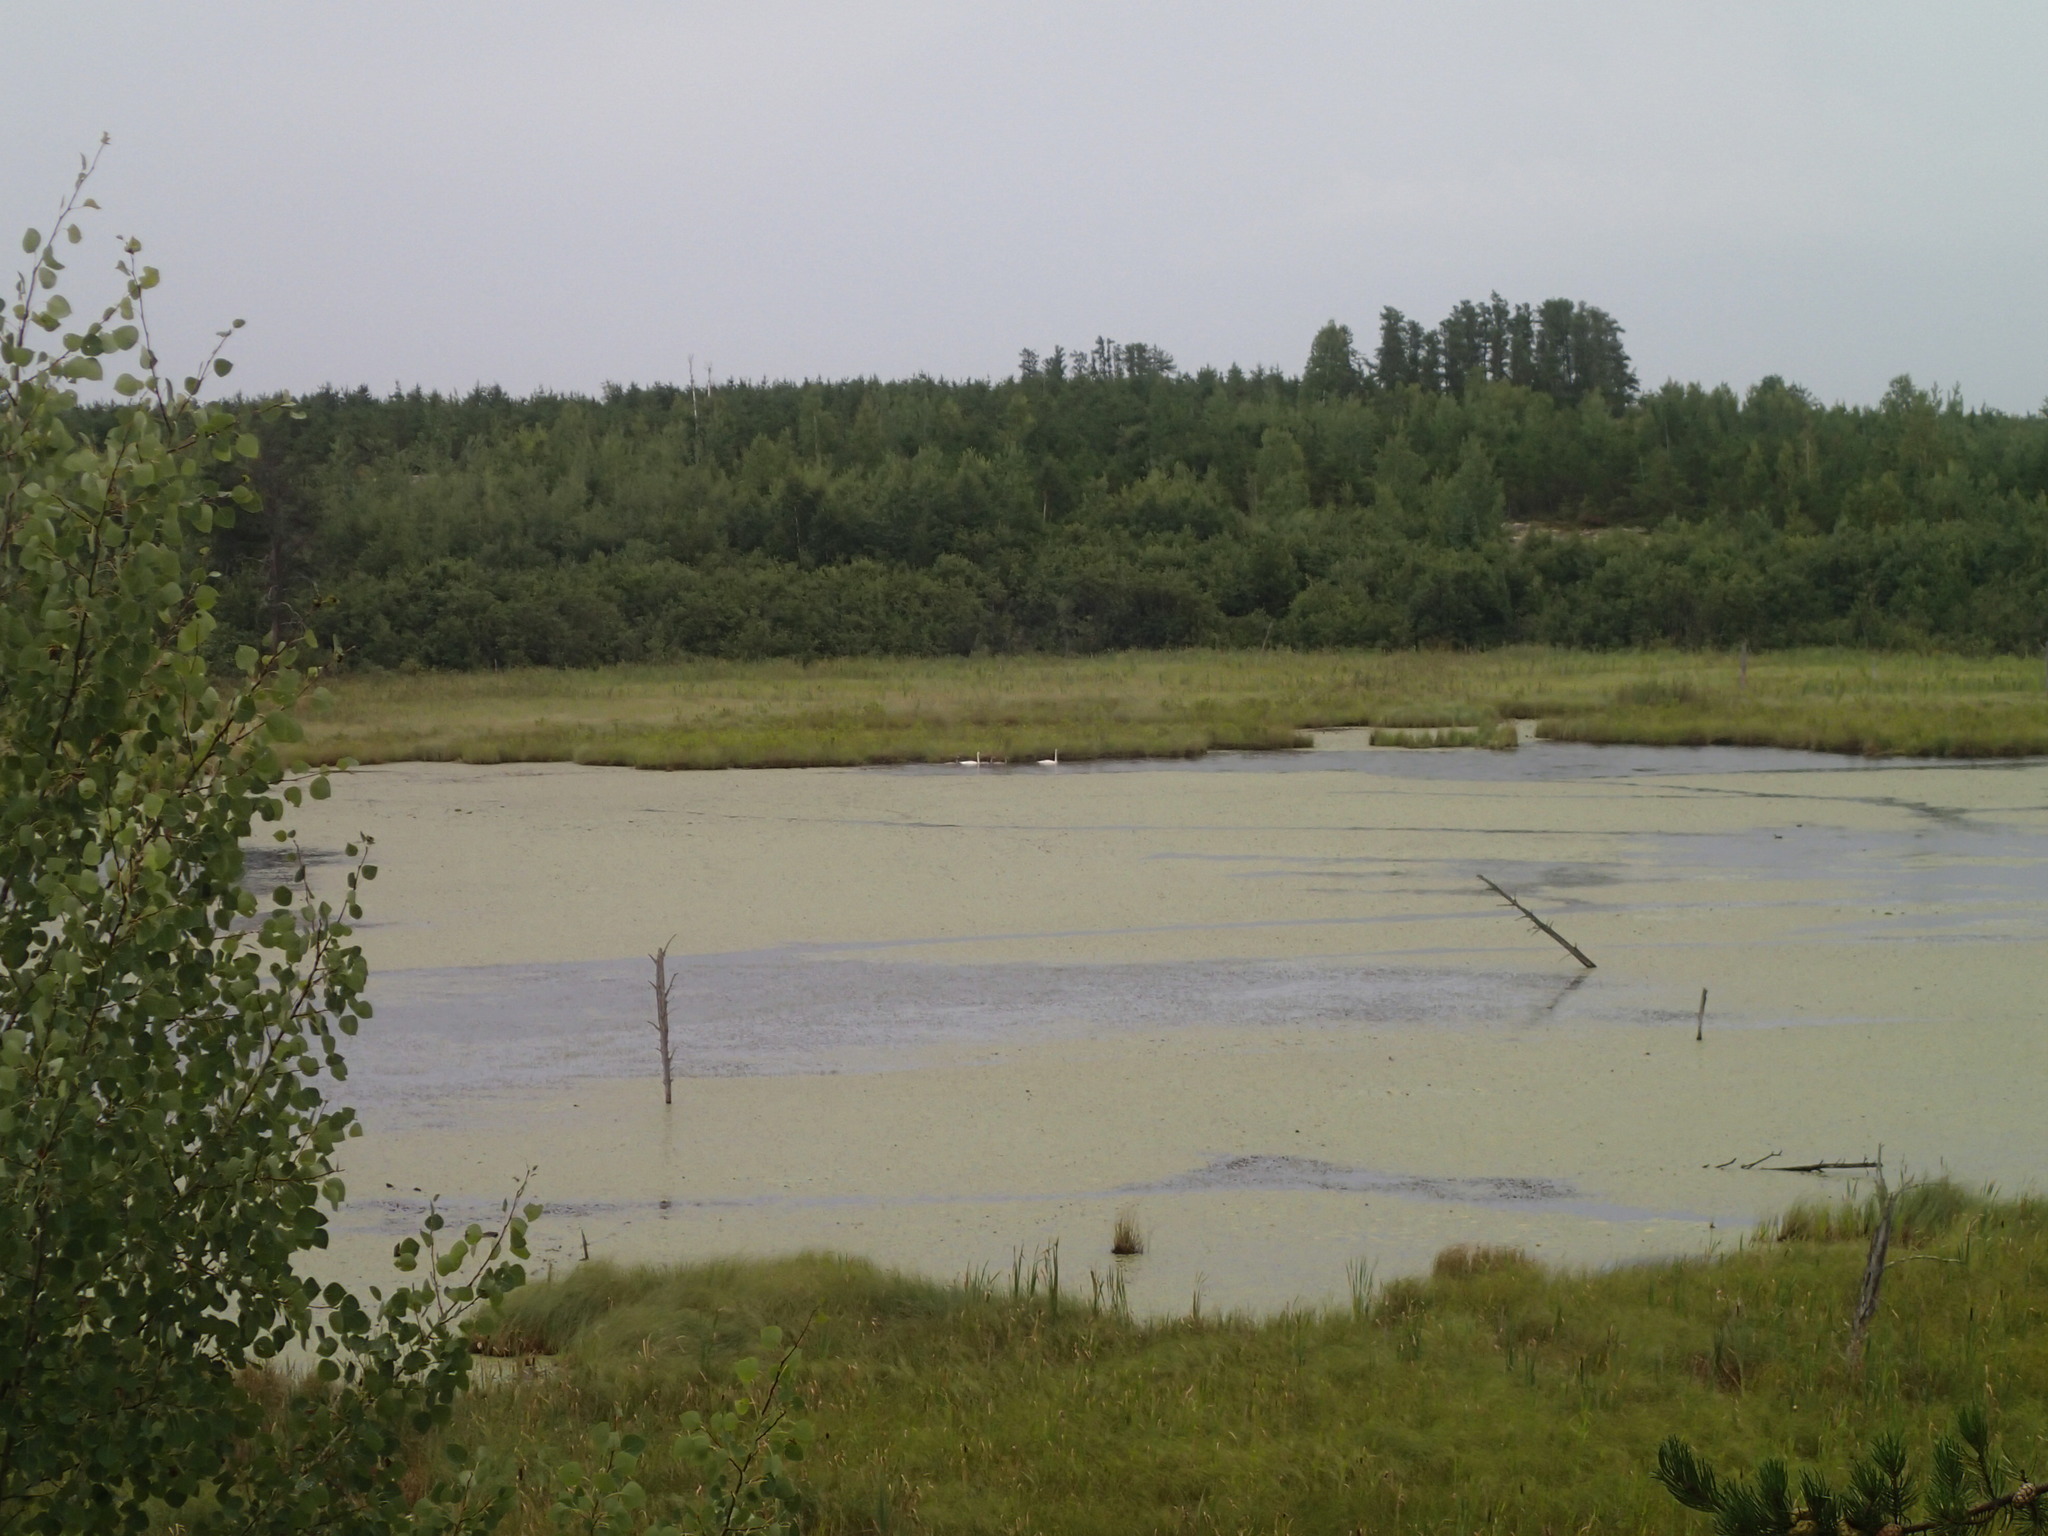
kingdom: Animalia
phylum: Chordata
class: Aves
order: Anseriformes
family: Anatidae
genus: Cygnus
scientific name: Cygnus buccinator
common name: Trumpeter swan
